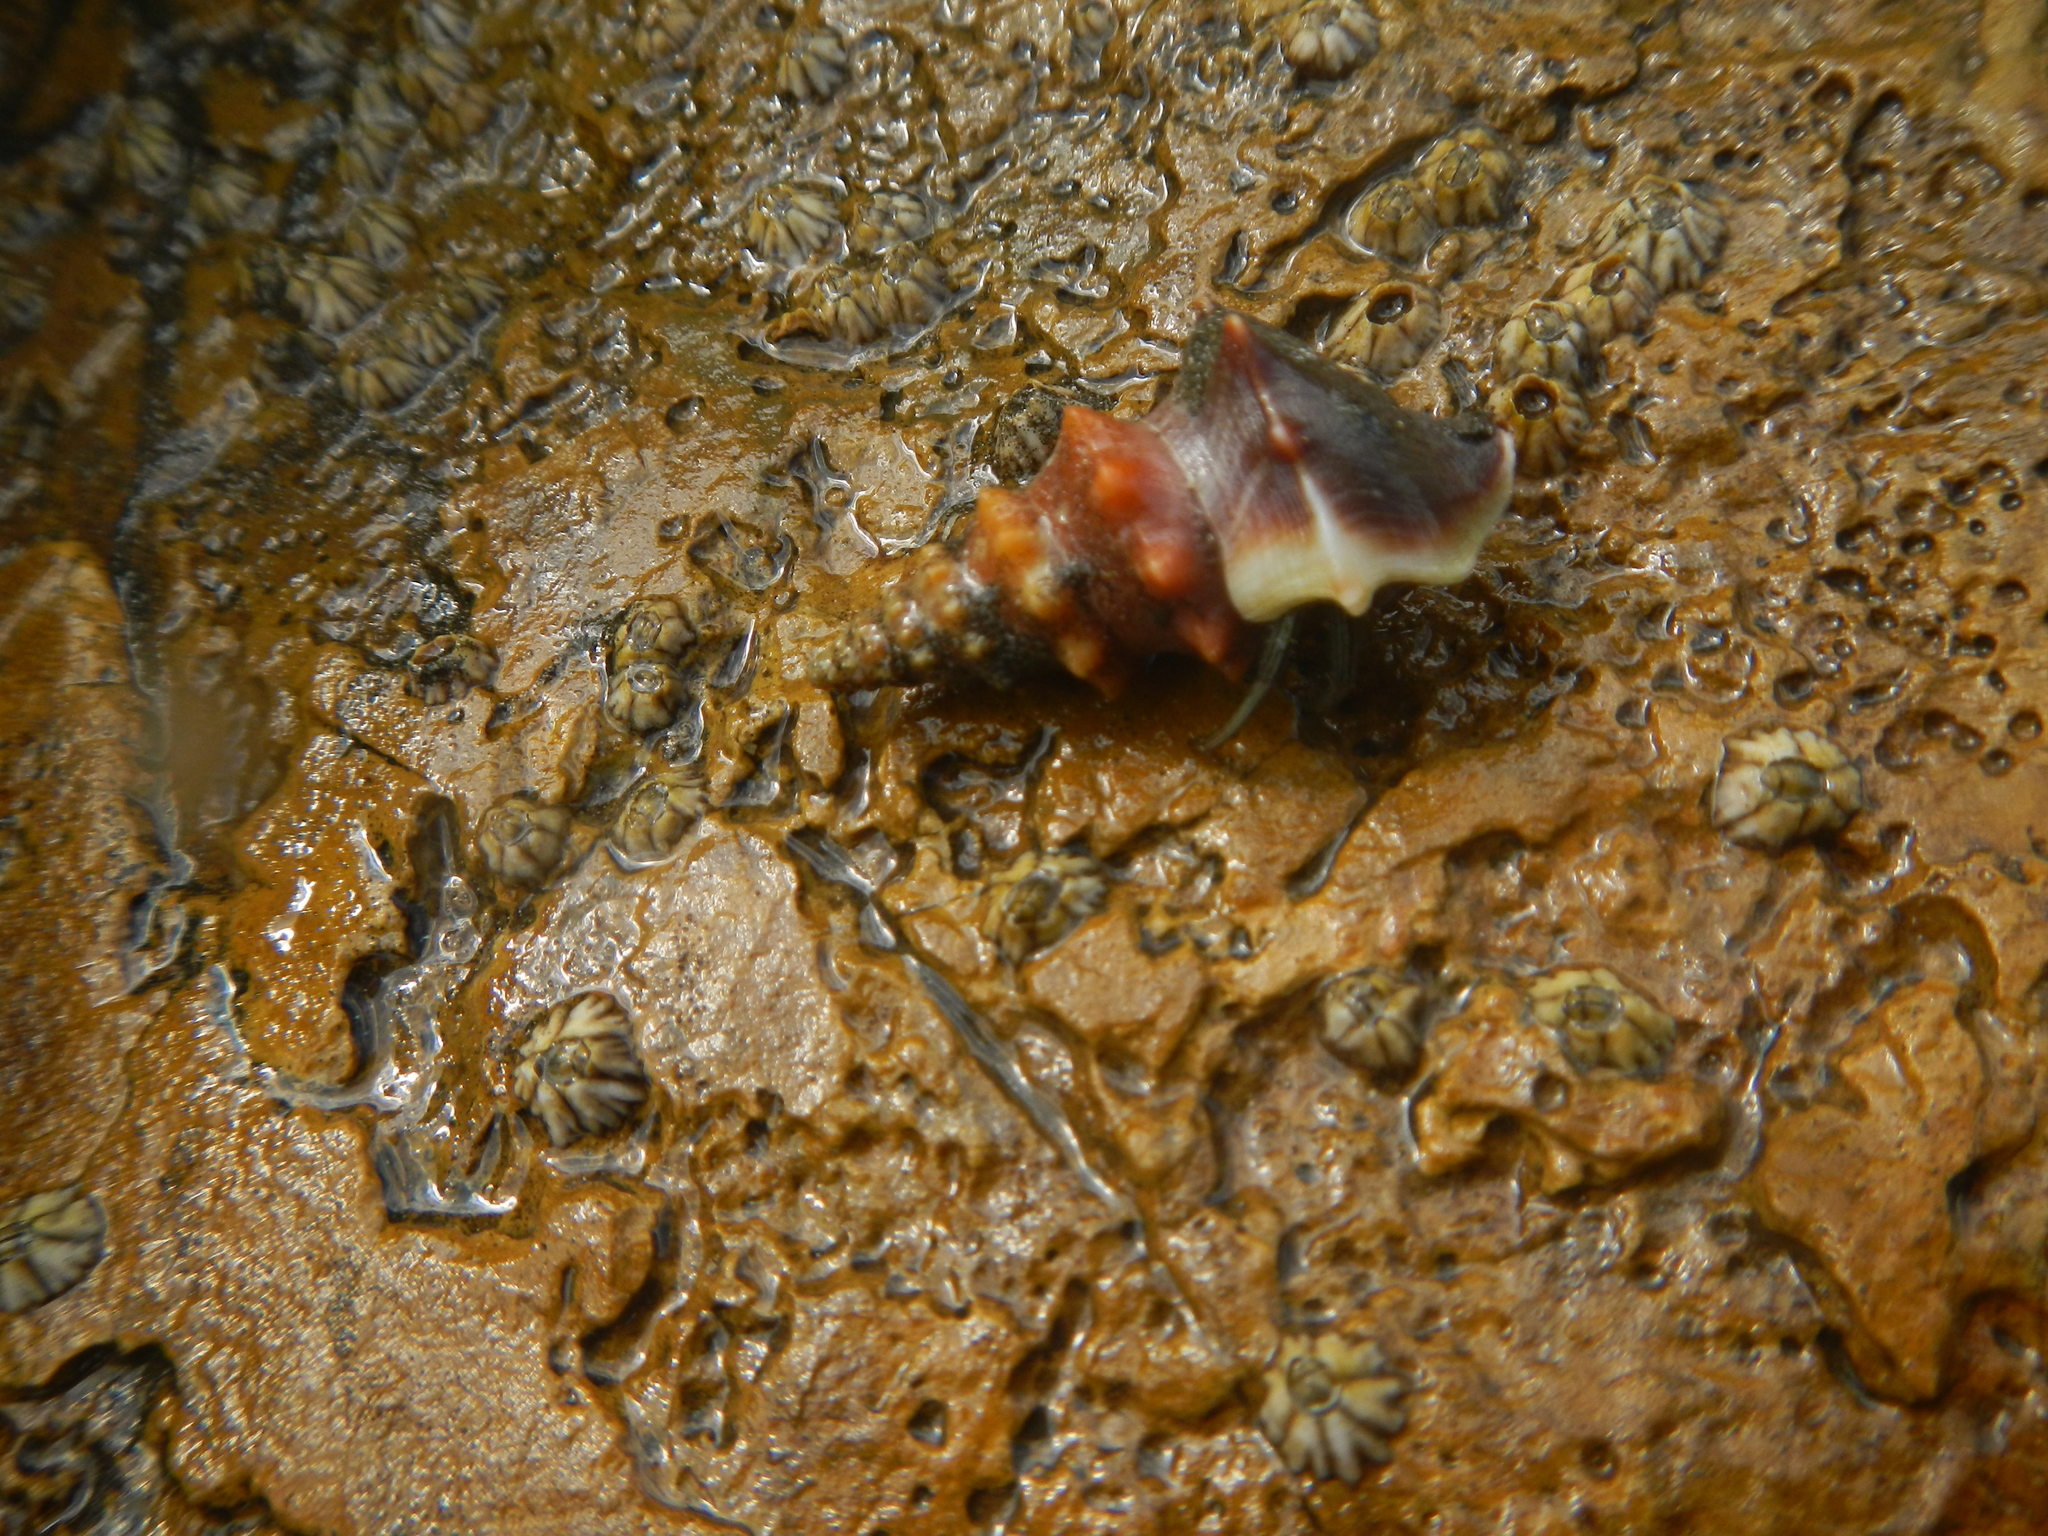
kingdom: Animalia
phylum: Mollusca
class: Gastropoda
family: Batillariidae
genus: Rhinocoryne
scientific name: Rhinocoryne humboldti
